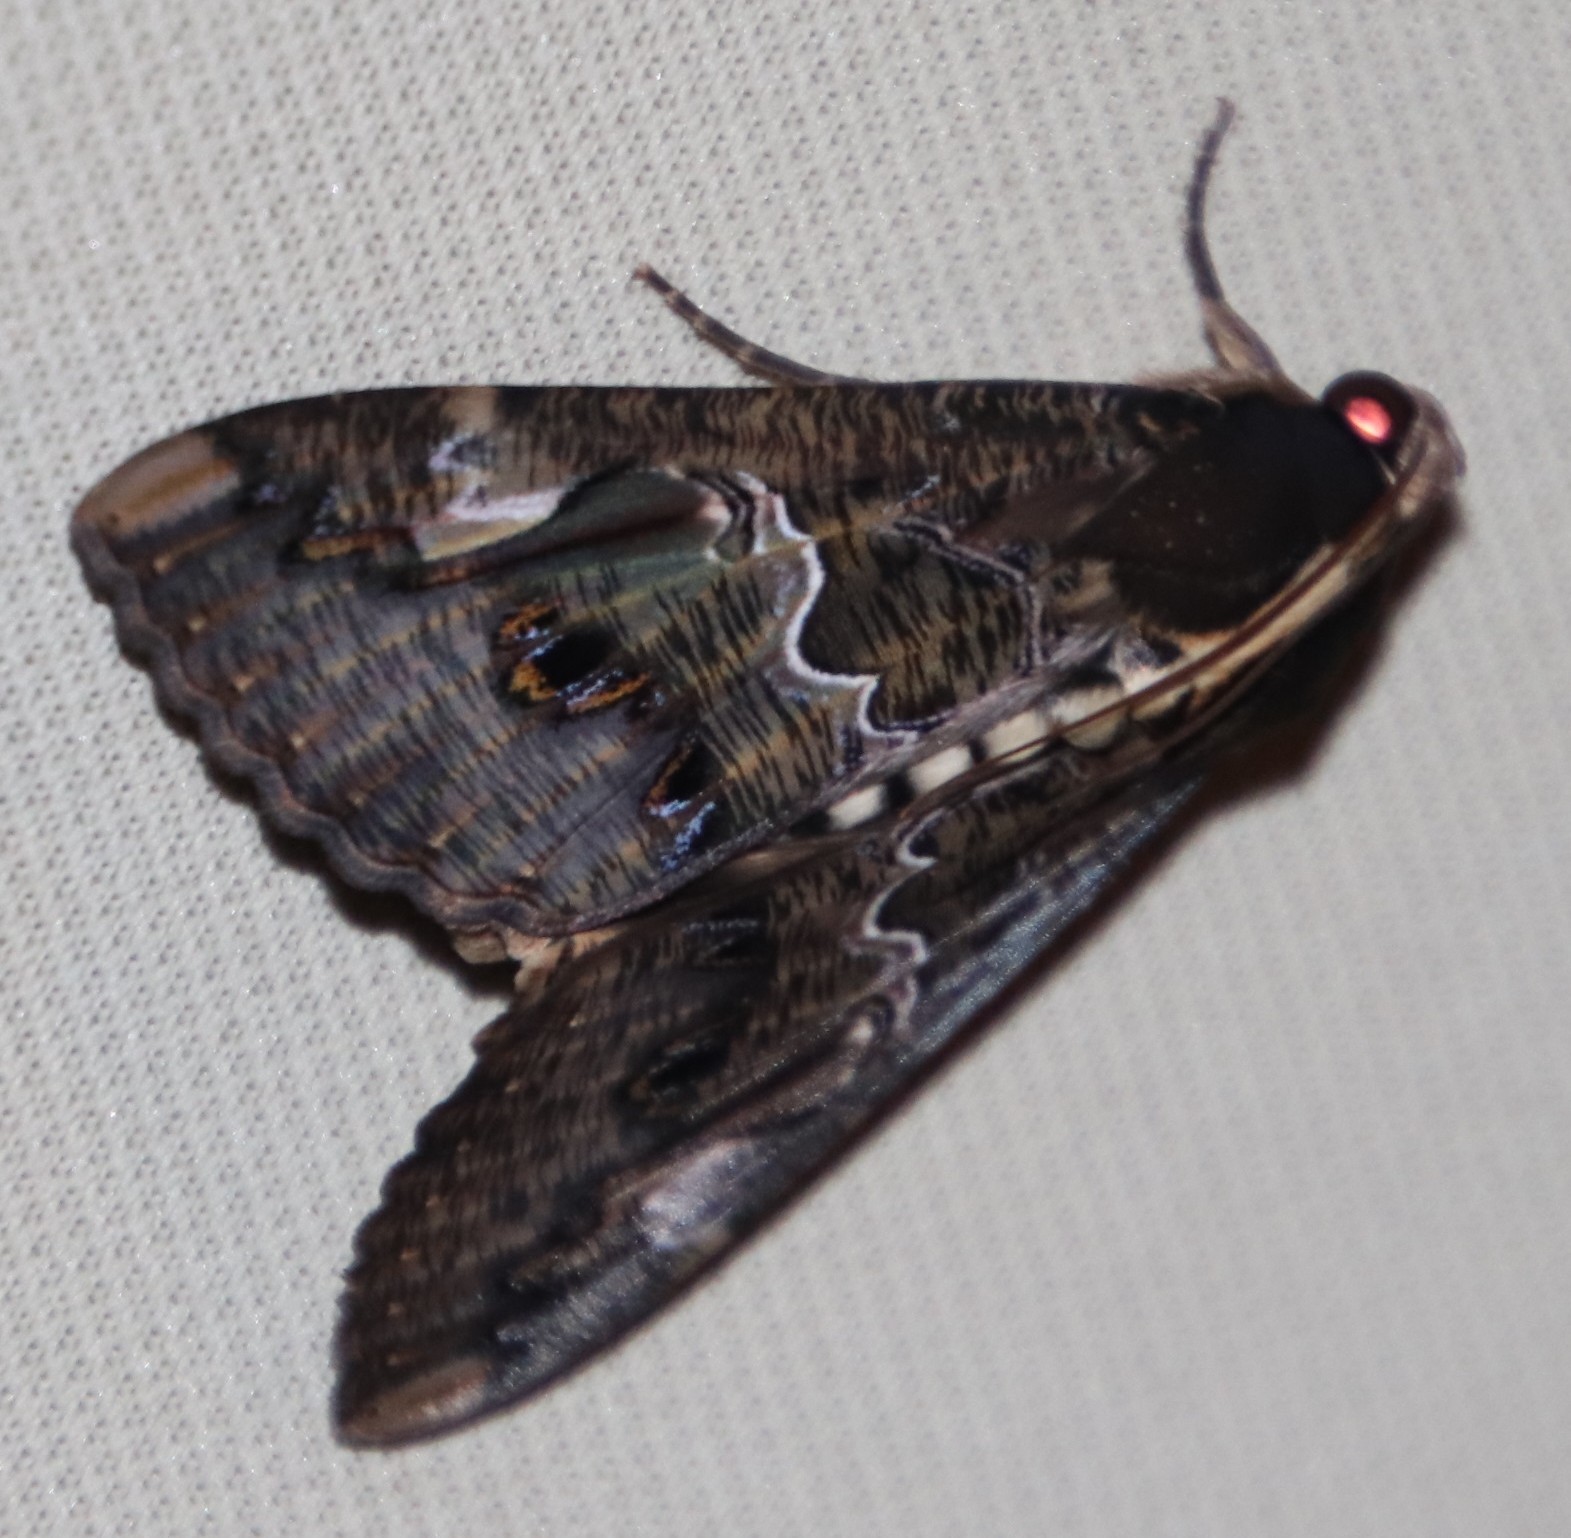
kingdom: Animalia
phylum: Arthropoda
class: Insecta
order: Lepidoptera
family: Erebidae
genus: Sphingomorpha
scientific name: Sphingomorpha chlorea
